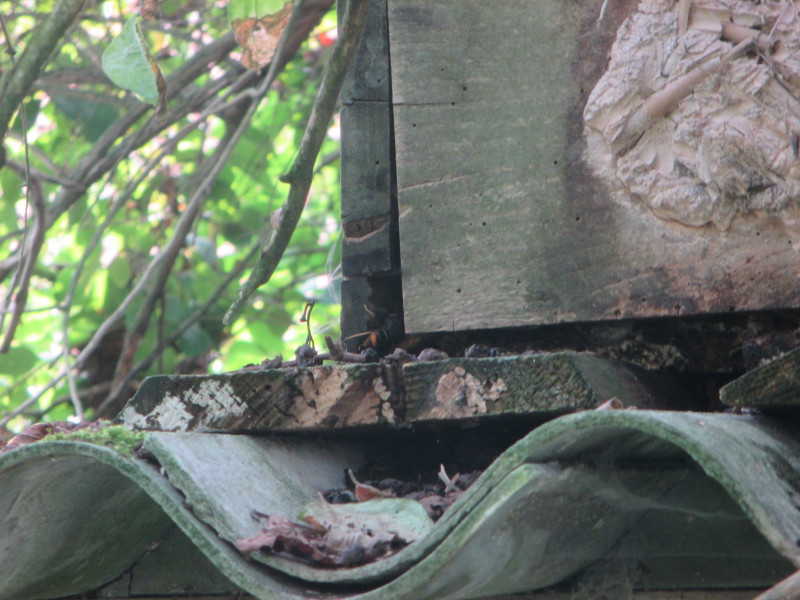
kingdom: Animalia
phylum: Arthropoda
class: Insecta
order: Hymenoptera
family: Vespidae
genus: Vespa
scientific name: Vespa velutina
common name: Asian hornet
